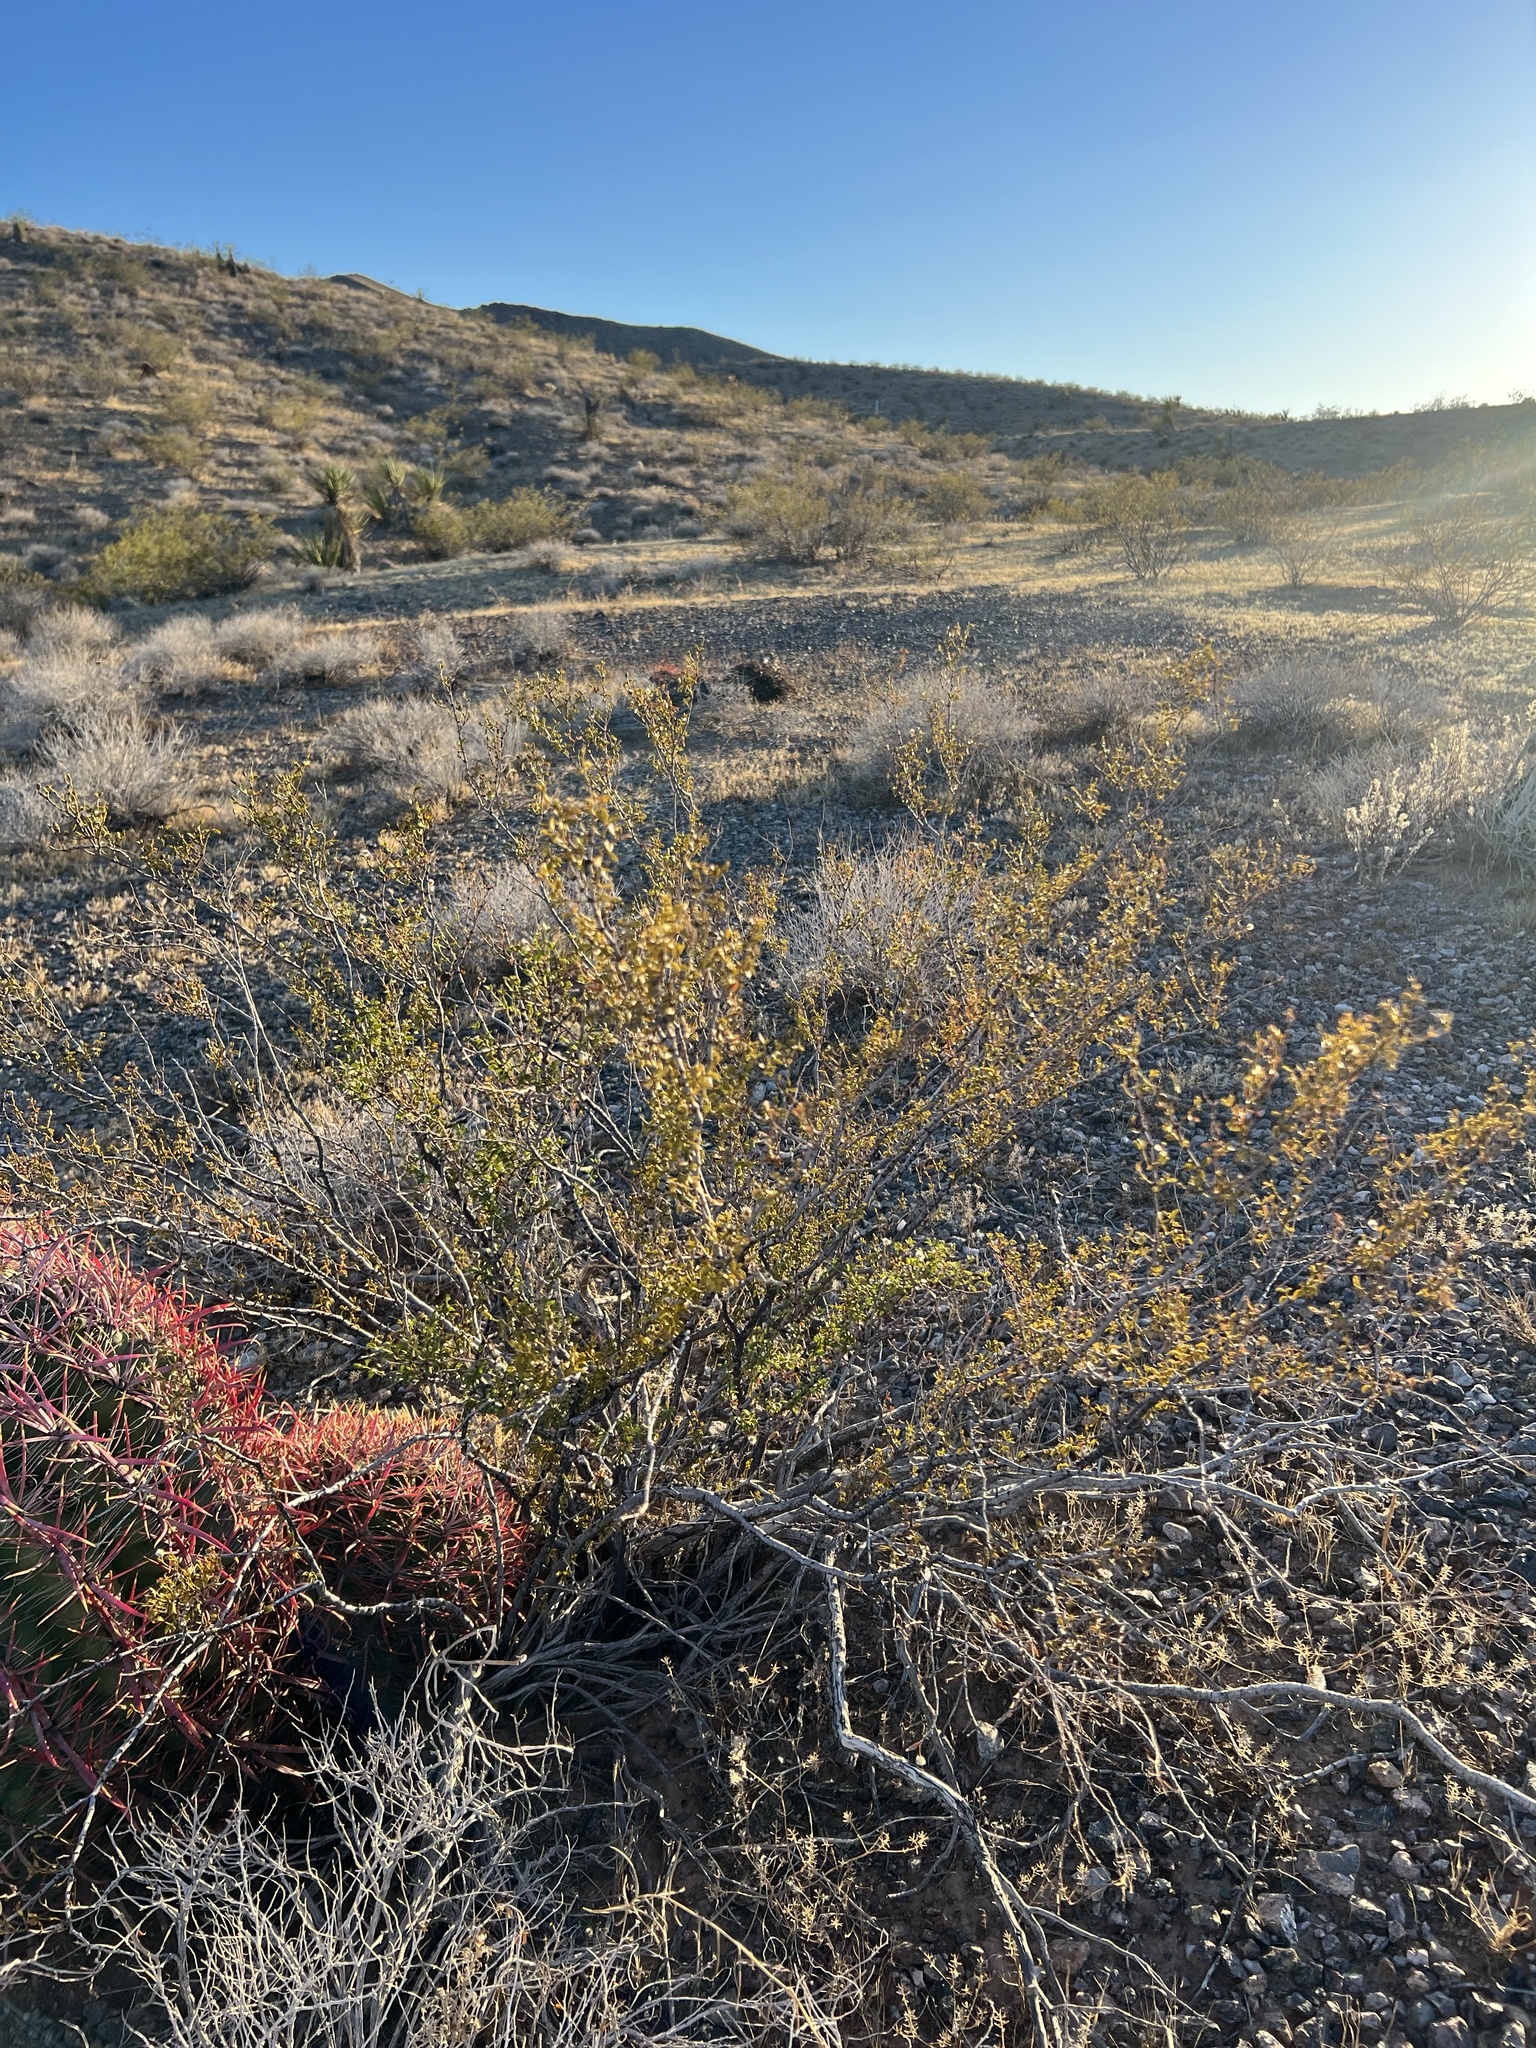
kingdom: Plantae
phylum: Tracheophyta
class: Magnoliopsida
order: Zygophyllales
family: Zygophyllaceae
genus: Larrea
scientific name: Larrea tridentata
